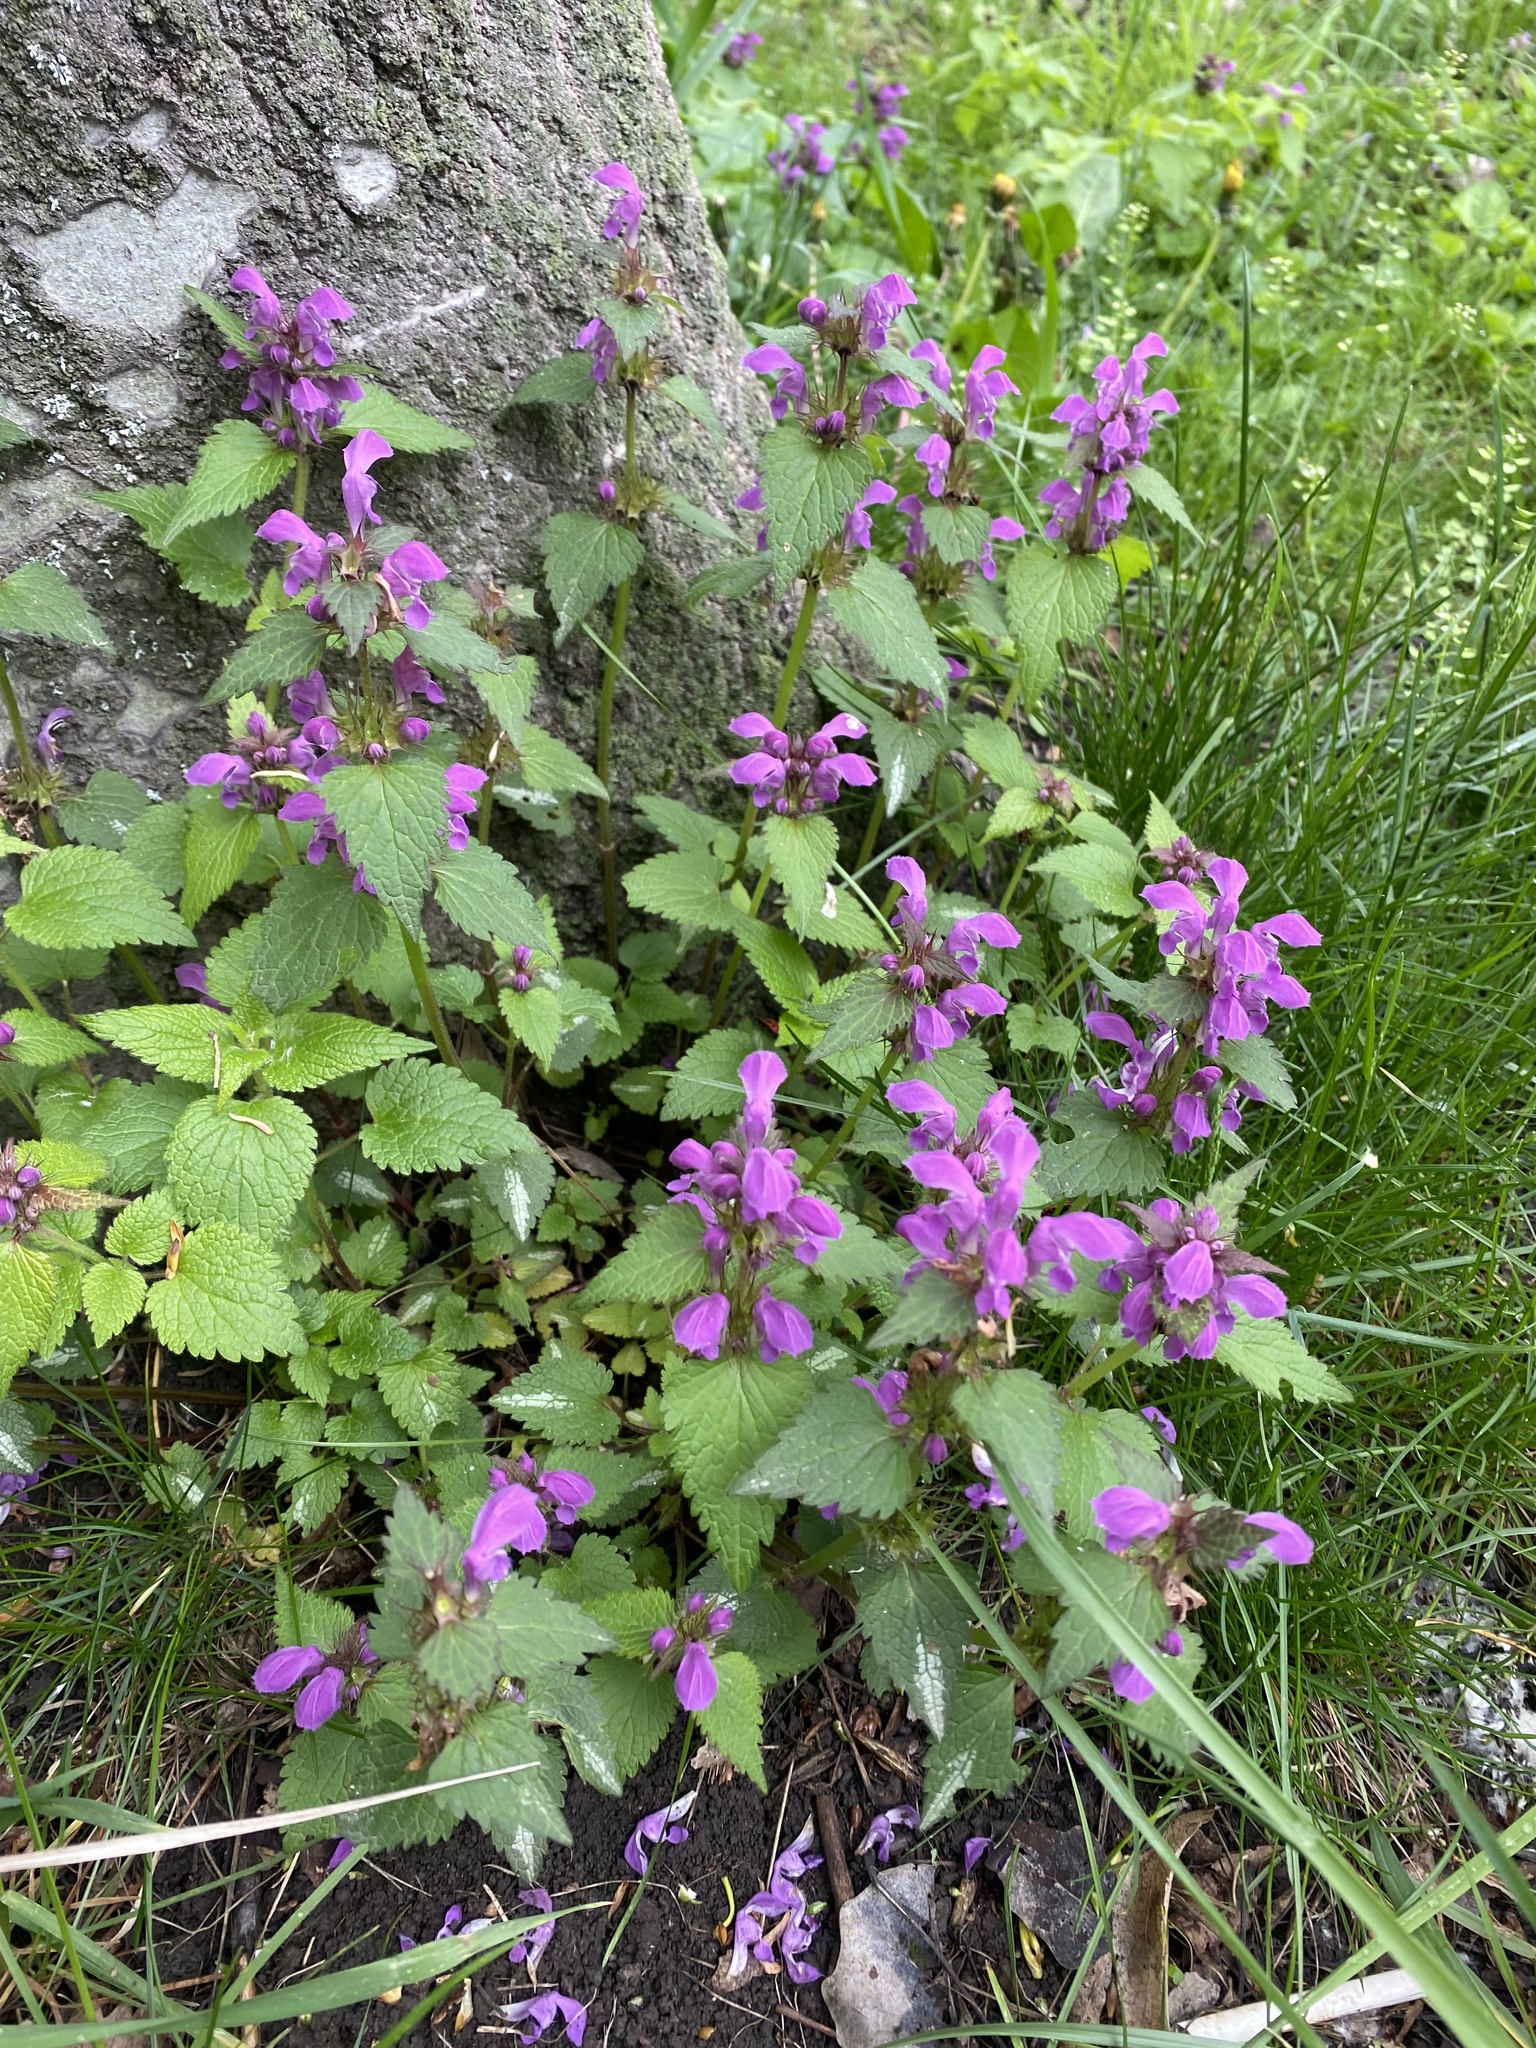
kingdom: Plantae
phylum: Tracheophyta
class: Magnoliopsida
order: Lamiales
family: Lamiaceae
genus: Lamium
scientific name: Lamium maculatum
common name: Spotted dead-nettle
